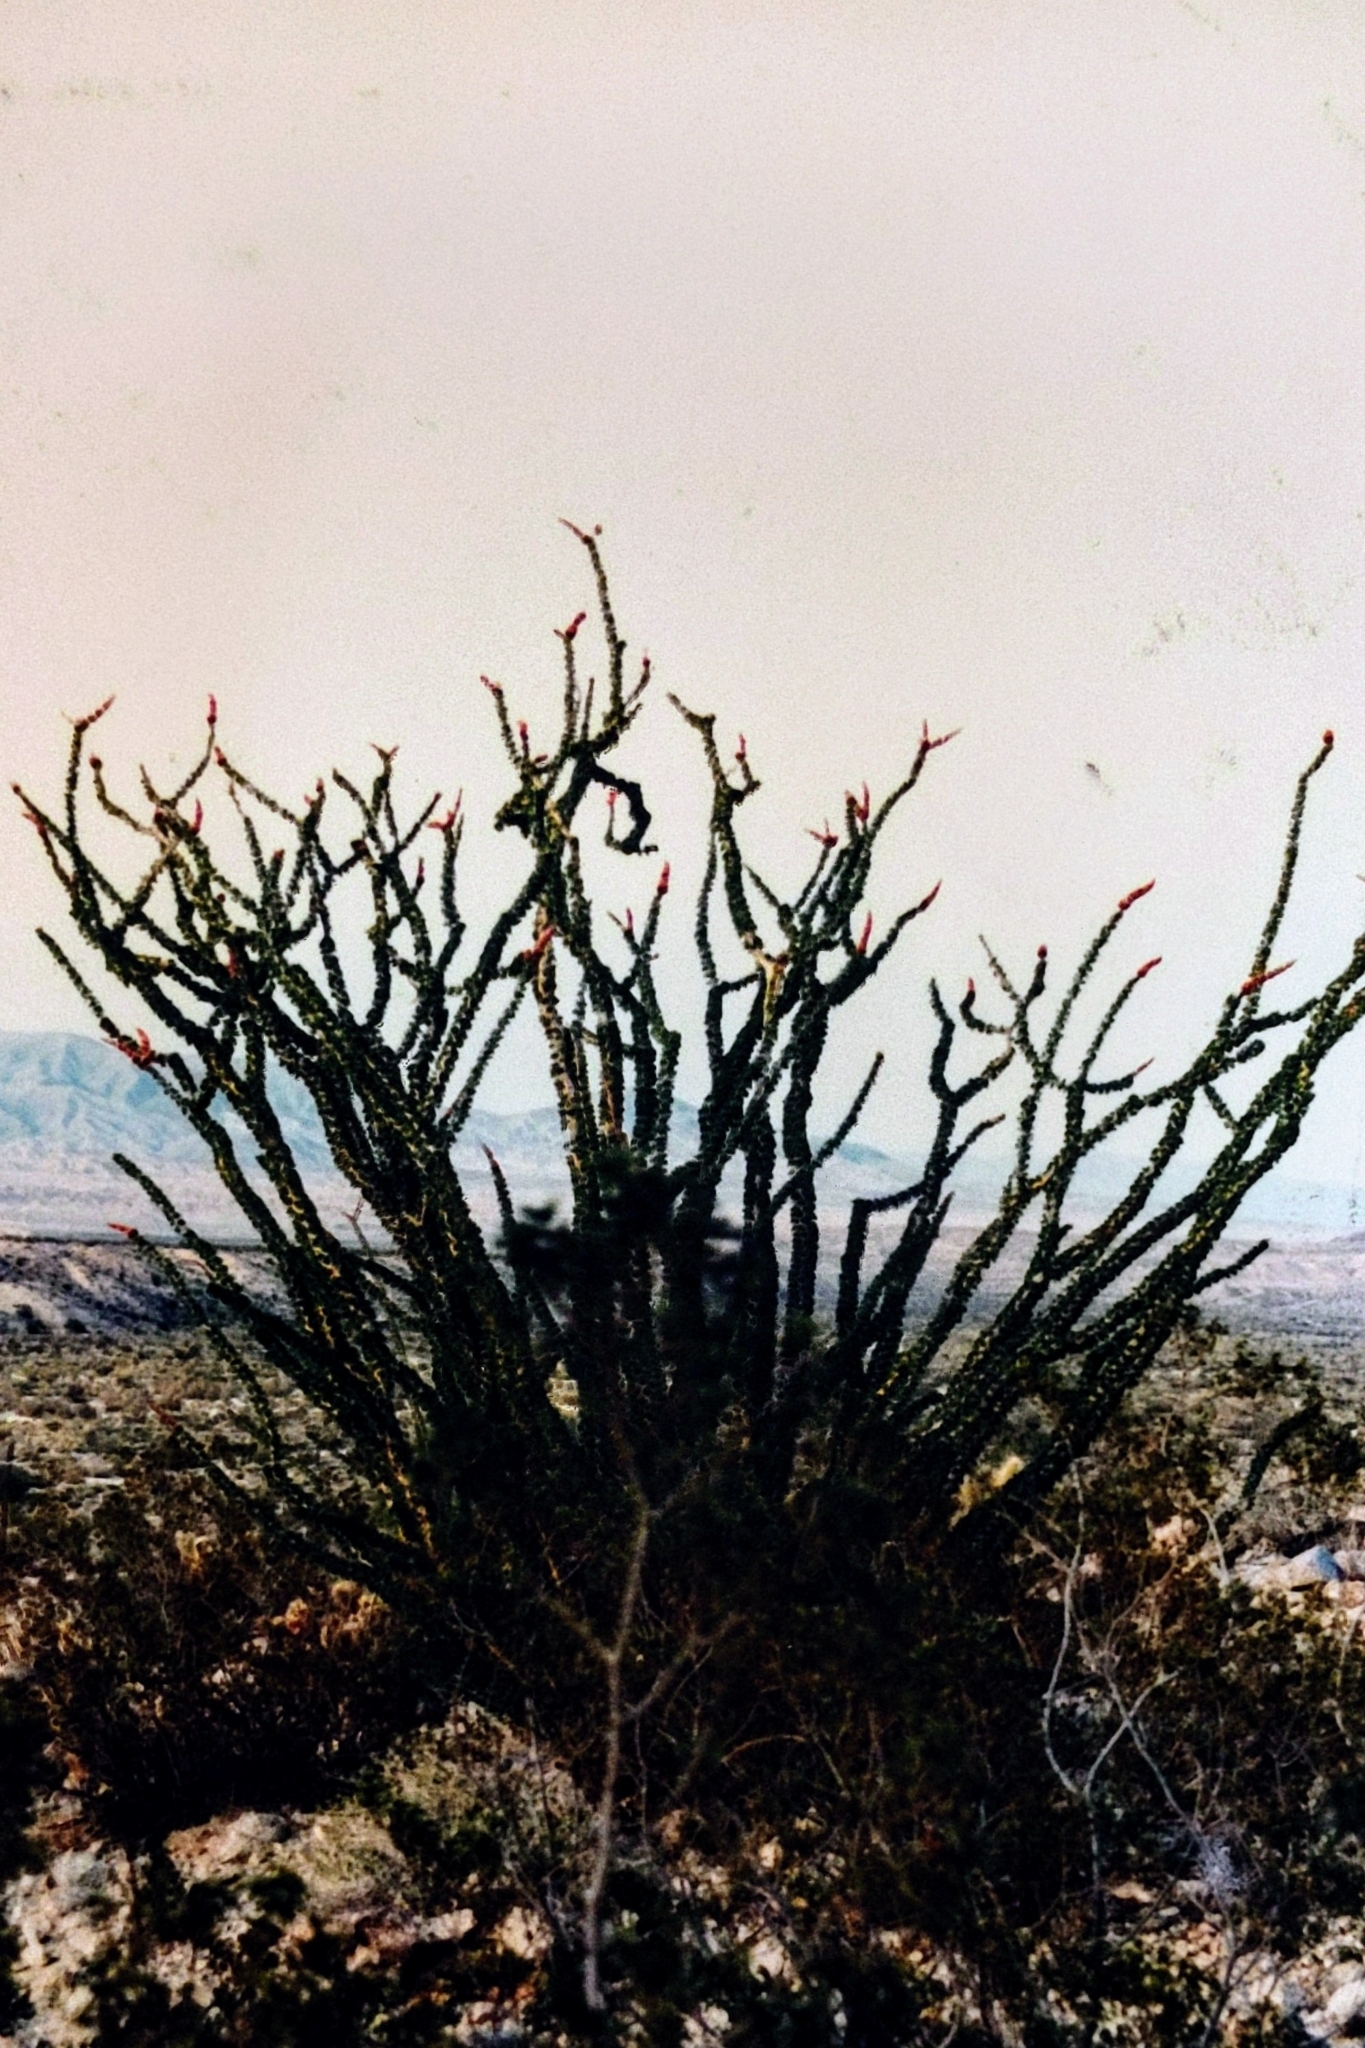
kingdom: Plantae
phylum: Tracheophyta
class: Magnoliopsida
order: Ericales
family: Fouquieriaceae
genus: Fouquieria
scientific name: Fouquieria splendens
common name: Vine-cactus
